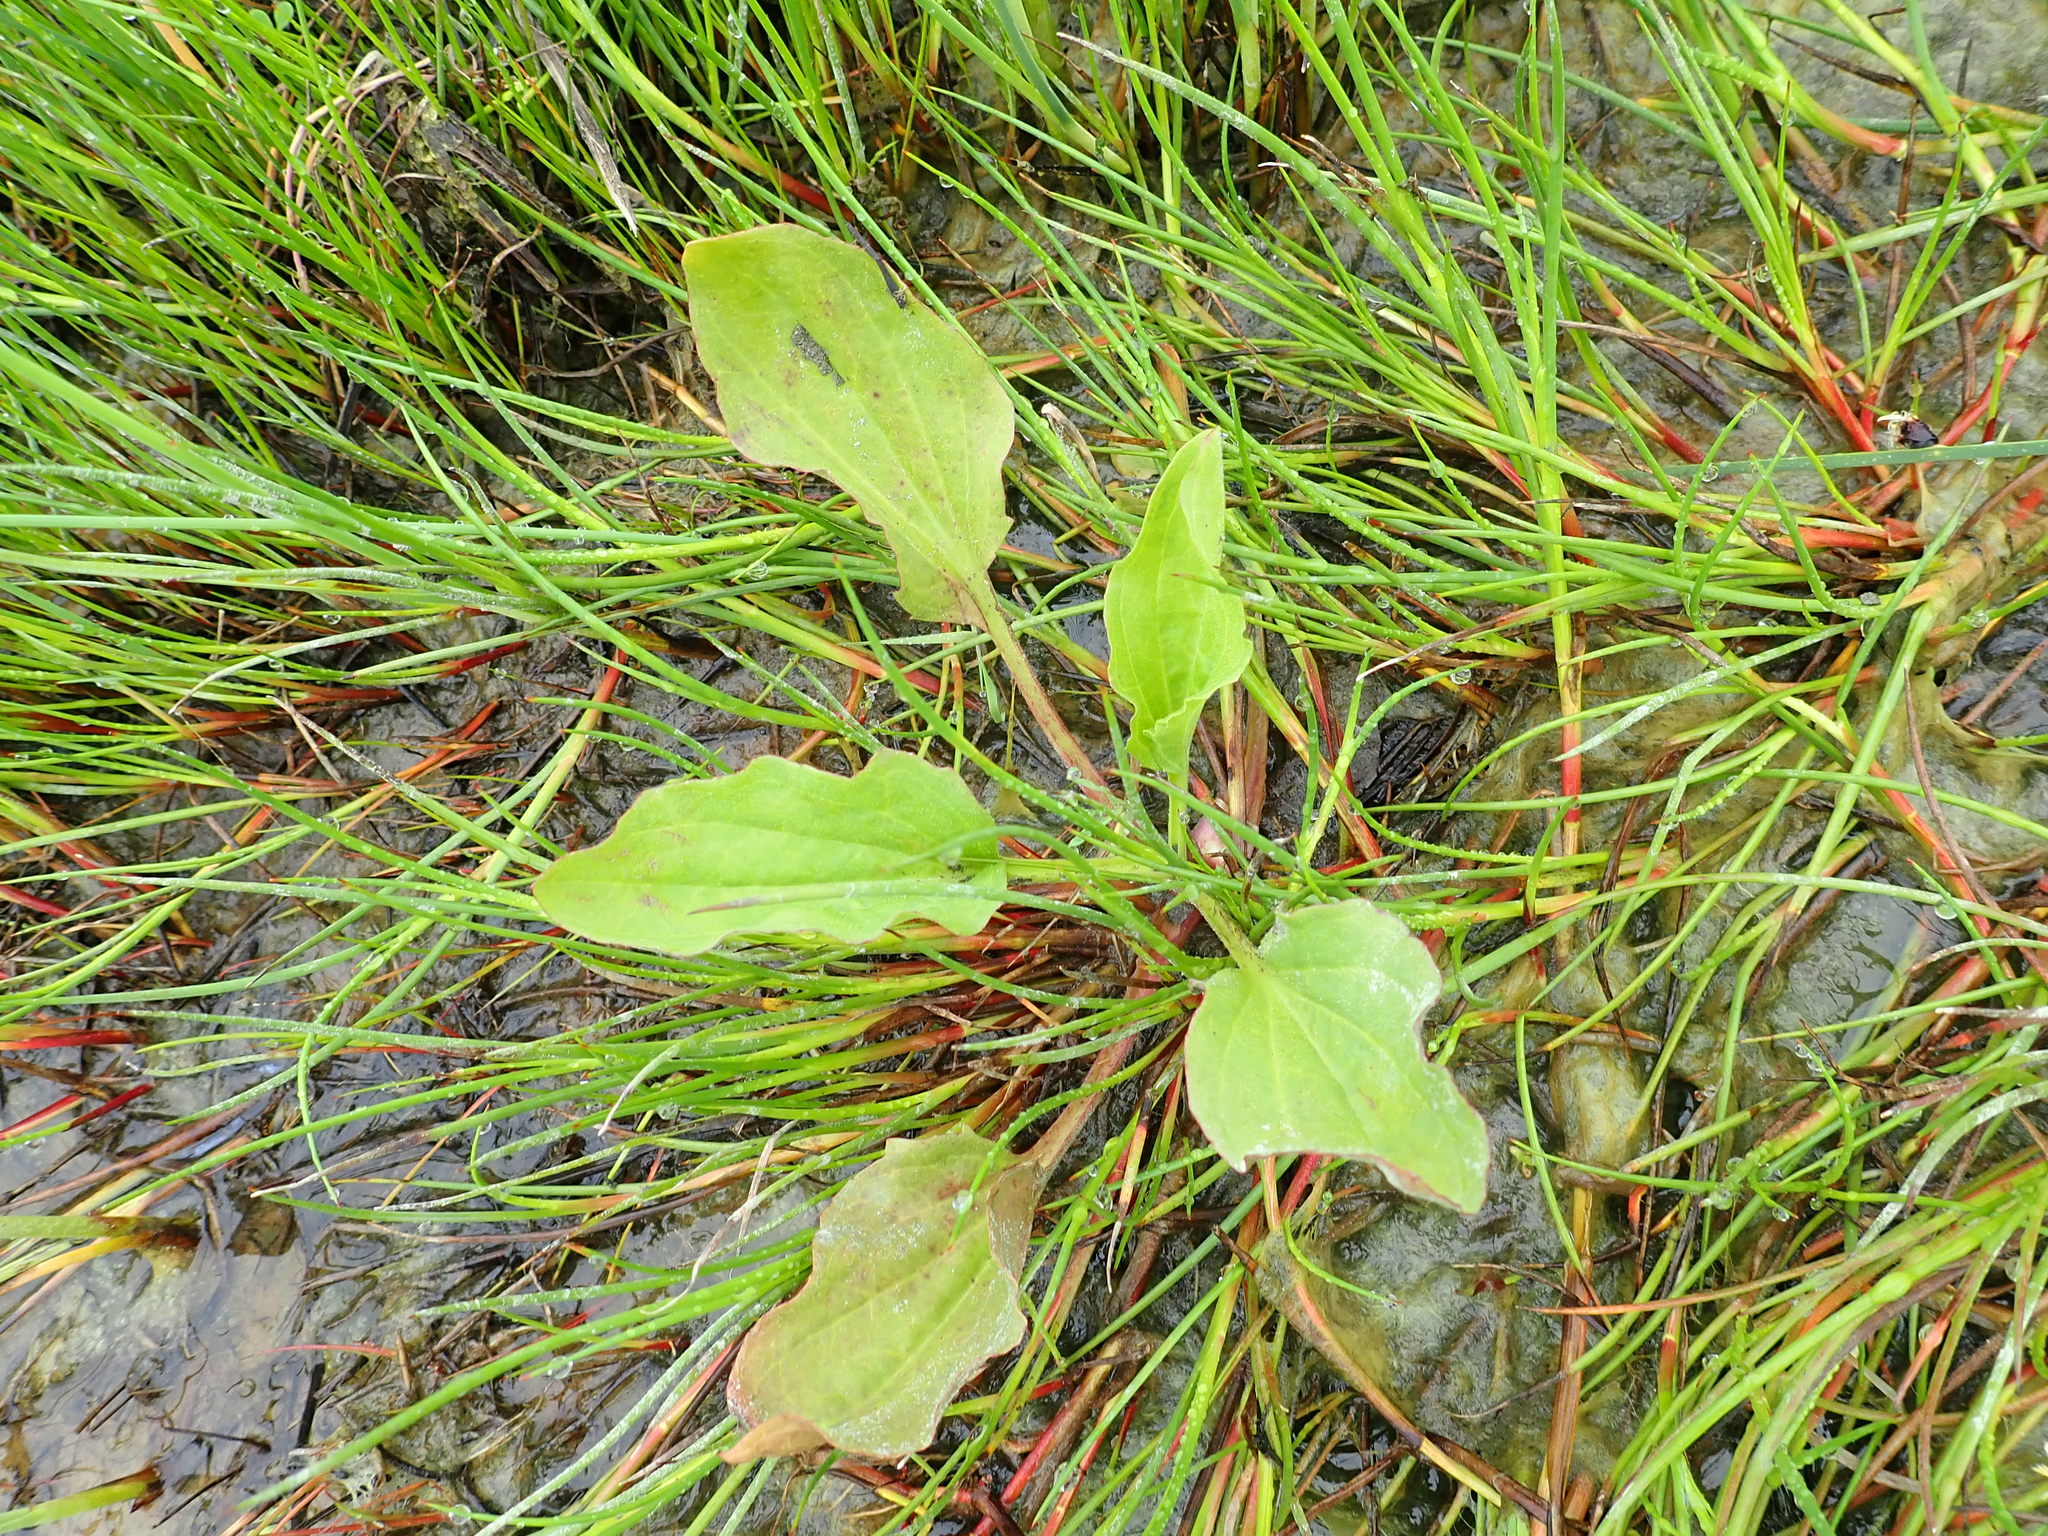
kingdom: Plantae
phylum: Tracheophyta
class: Magnoliopsida
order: Lamiales
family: Plantaginaceae
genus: Plantago
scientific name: Plantago australis
